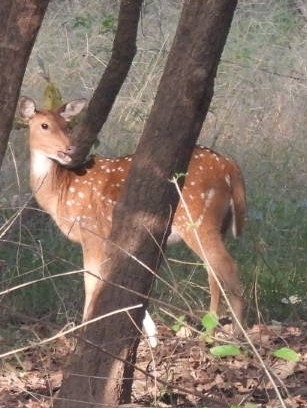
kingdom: Animalia
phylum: Chordata
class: Mammalia
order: Artiodactyla
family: Cervidae
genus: Axis
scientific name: Axis axis
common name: Chital
